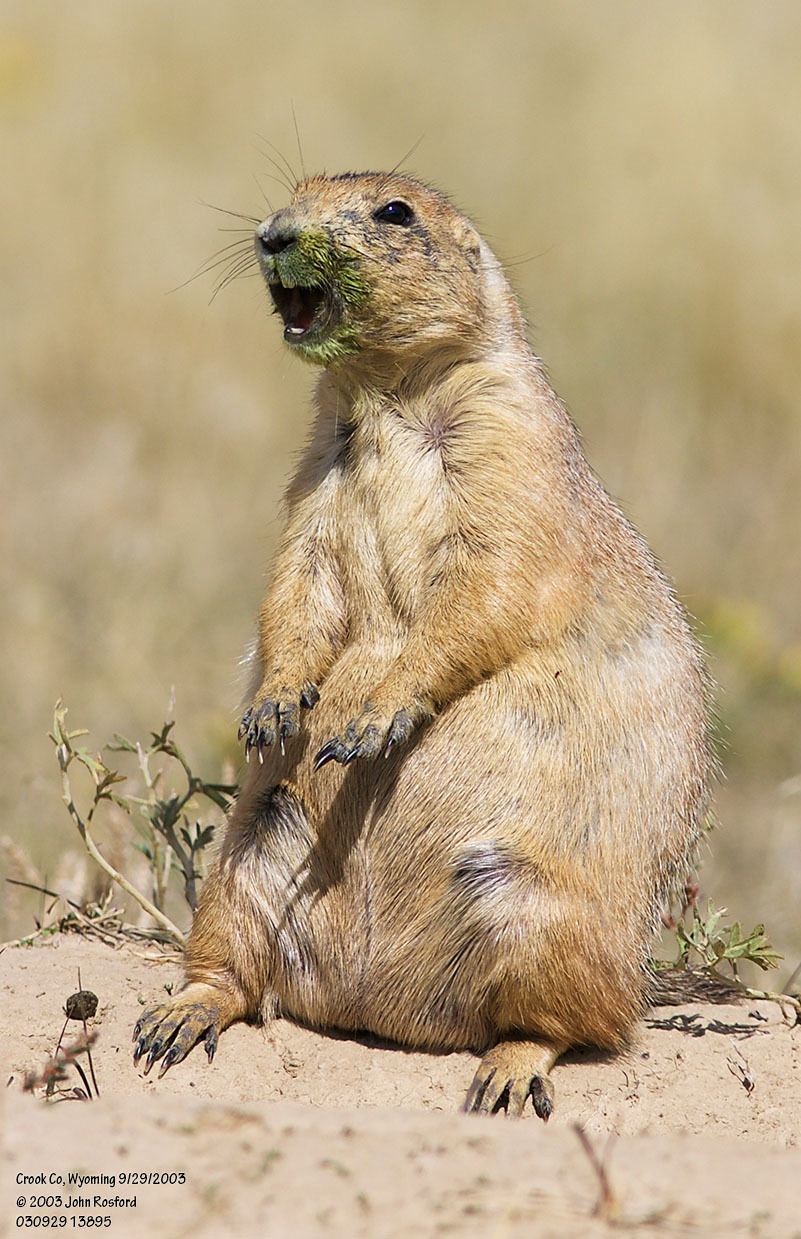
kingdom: Animalia
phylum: Chordata
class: Mammalia
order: Rodentia
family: Sciuridae
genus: Cynomys
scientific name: Cynomys ludovicianus
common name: Black-tailed prairie dog
